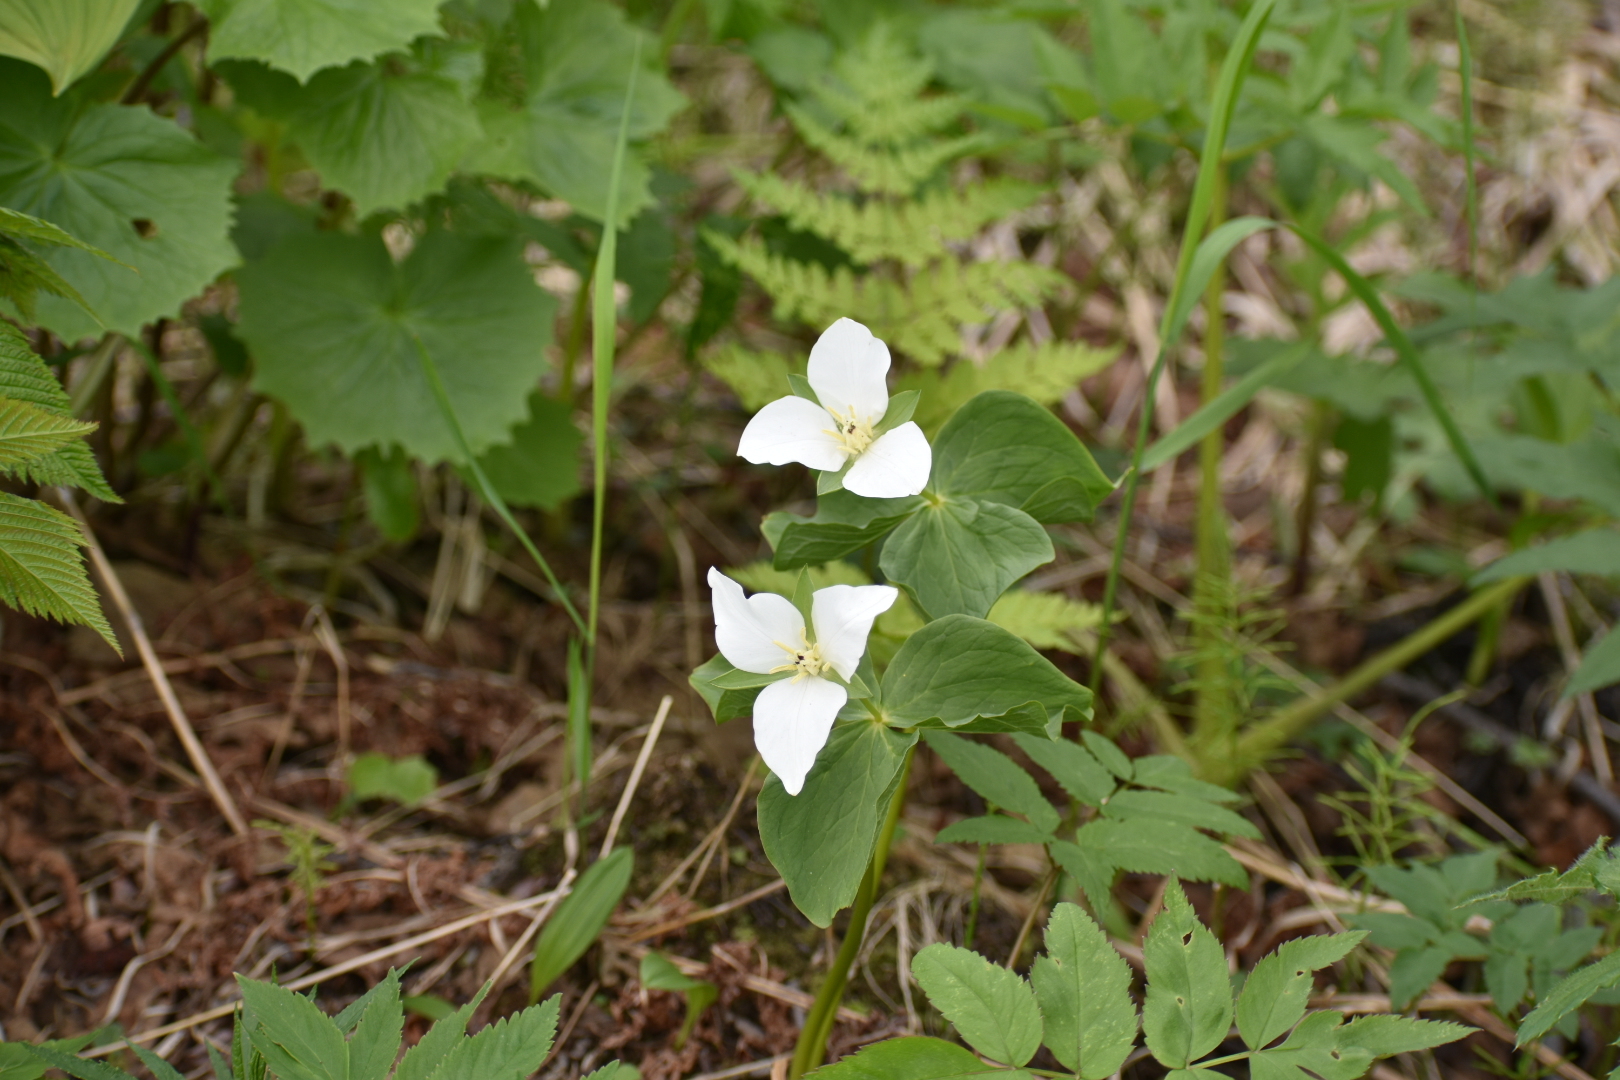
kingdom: Plantae
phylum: Tracheophyta
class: Liliopsida
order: Liliales
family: Melanthiaceae
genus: Trillium
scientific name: Trillium camschatcense
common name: Kamchatka trillium
